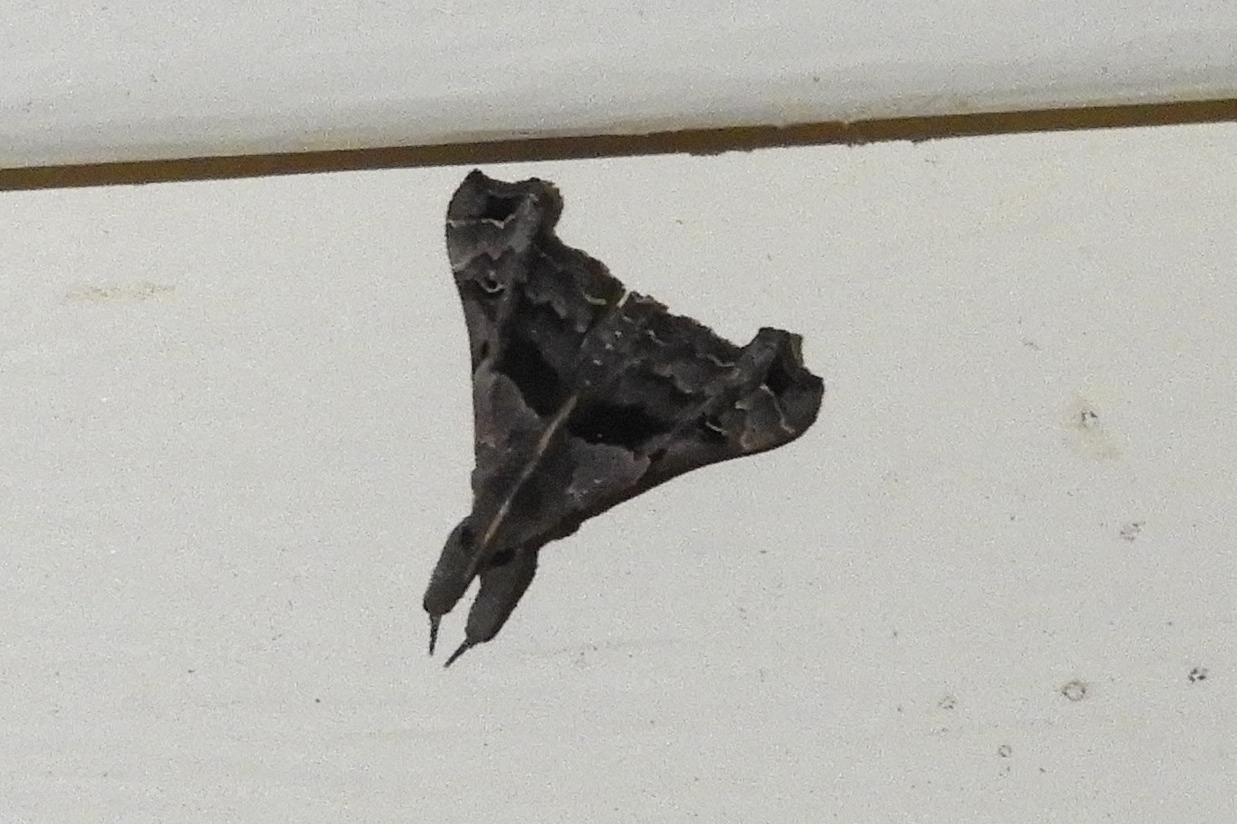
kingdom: Animalia
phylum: Arthropoda
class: Insecta
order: Lepidoptera
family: Erebidae
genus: Palthis
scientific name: Palthis asopialis
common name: Faint-spotted palthis moth
